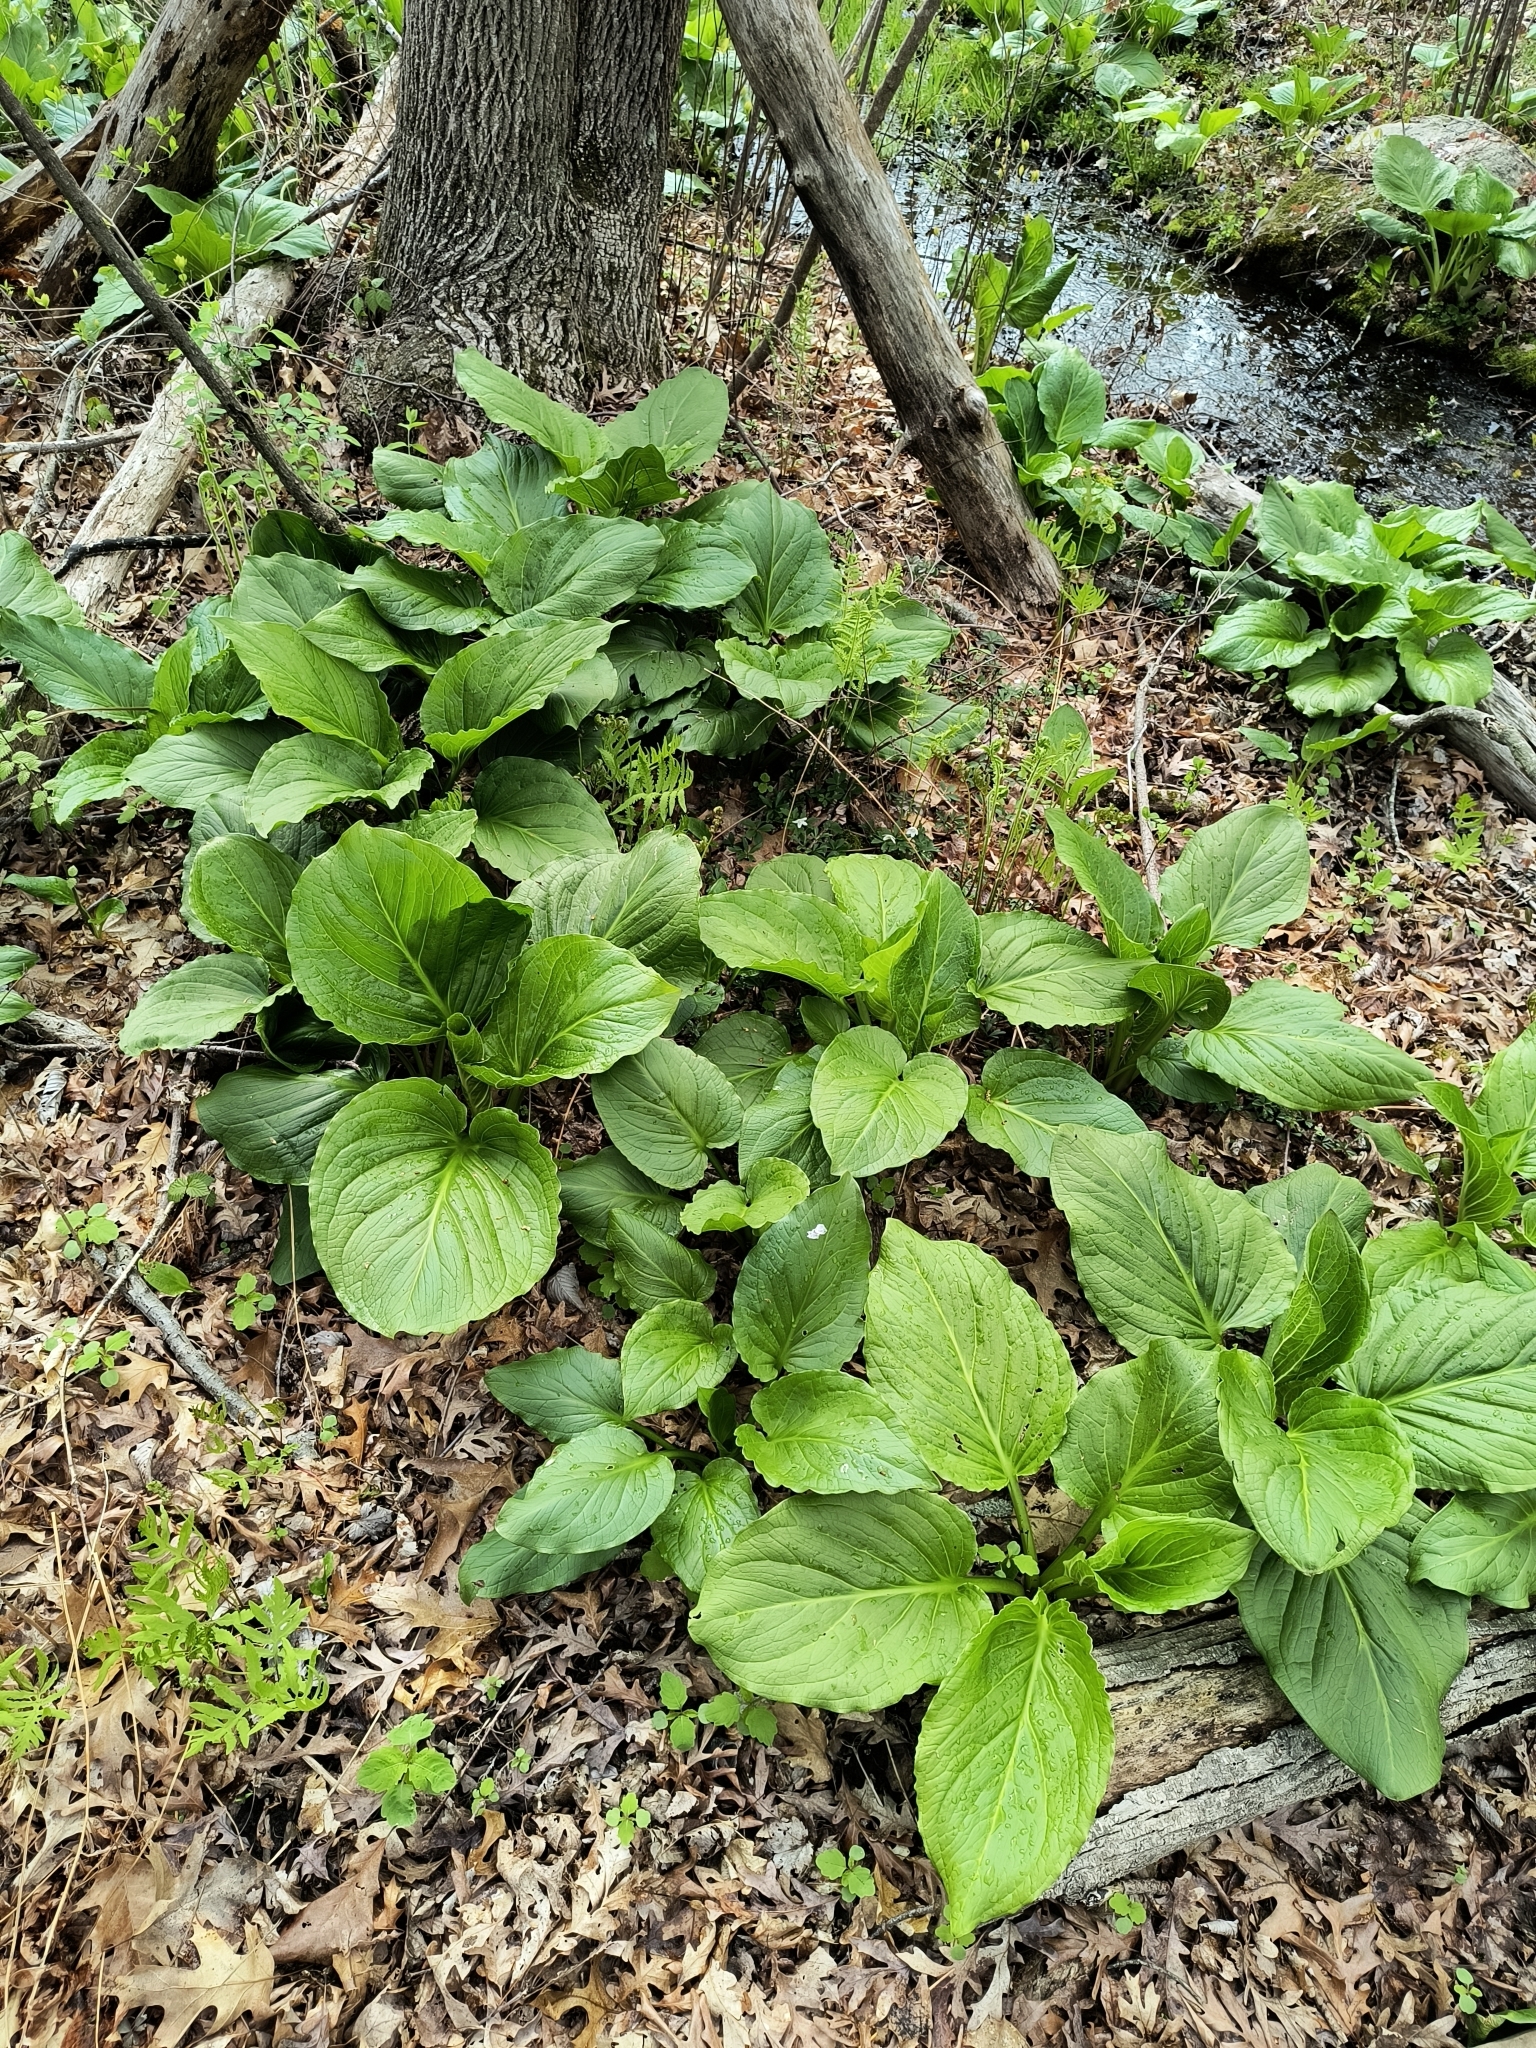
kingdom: Plantae
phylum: Tracheophyta
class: Liliopsida
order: Alismatales
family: Araceae
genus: Symplocarpus
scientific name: Symplocarpus foetidus
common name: Eastern skunk cabbage
